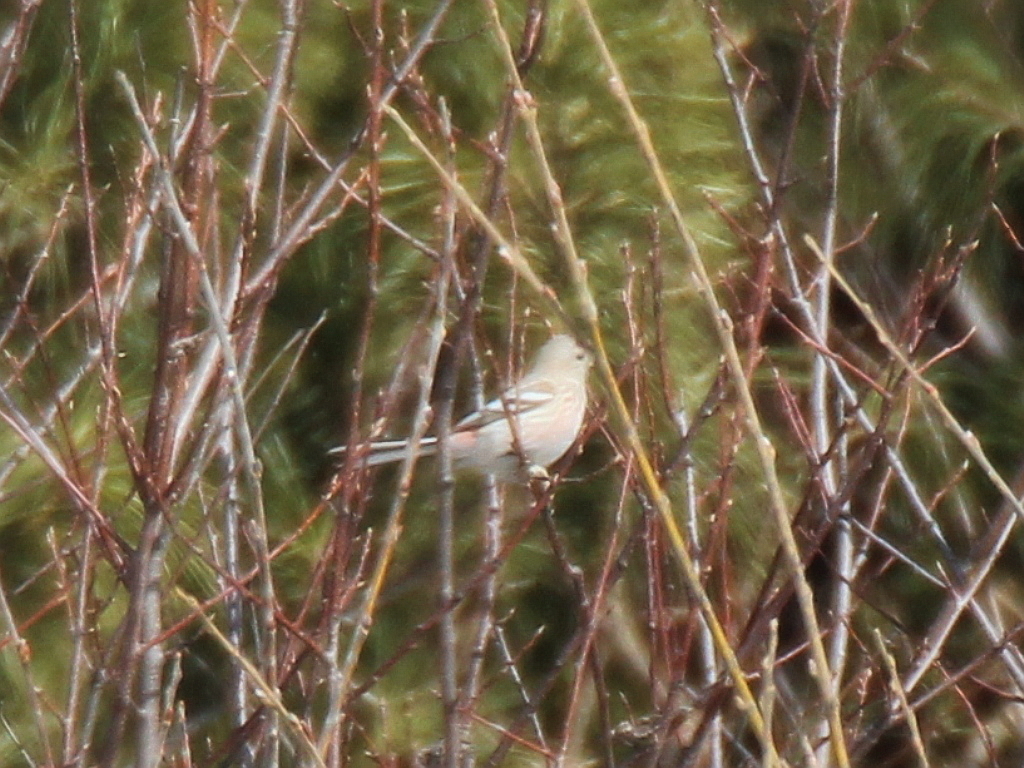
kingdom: Animalia
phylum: Chordata
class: Aves
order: Passeriformes
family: Fringillidae
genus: Carpodacus
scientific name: Carpodacus sibiricus
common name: Long-tailed rosefinch
